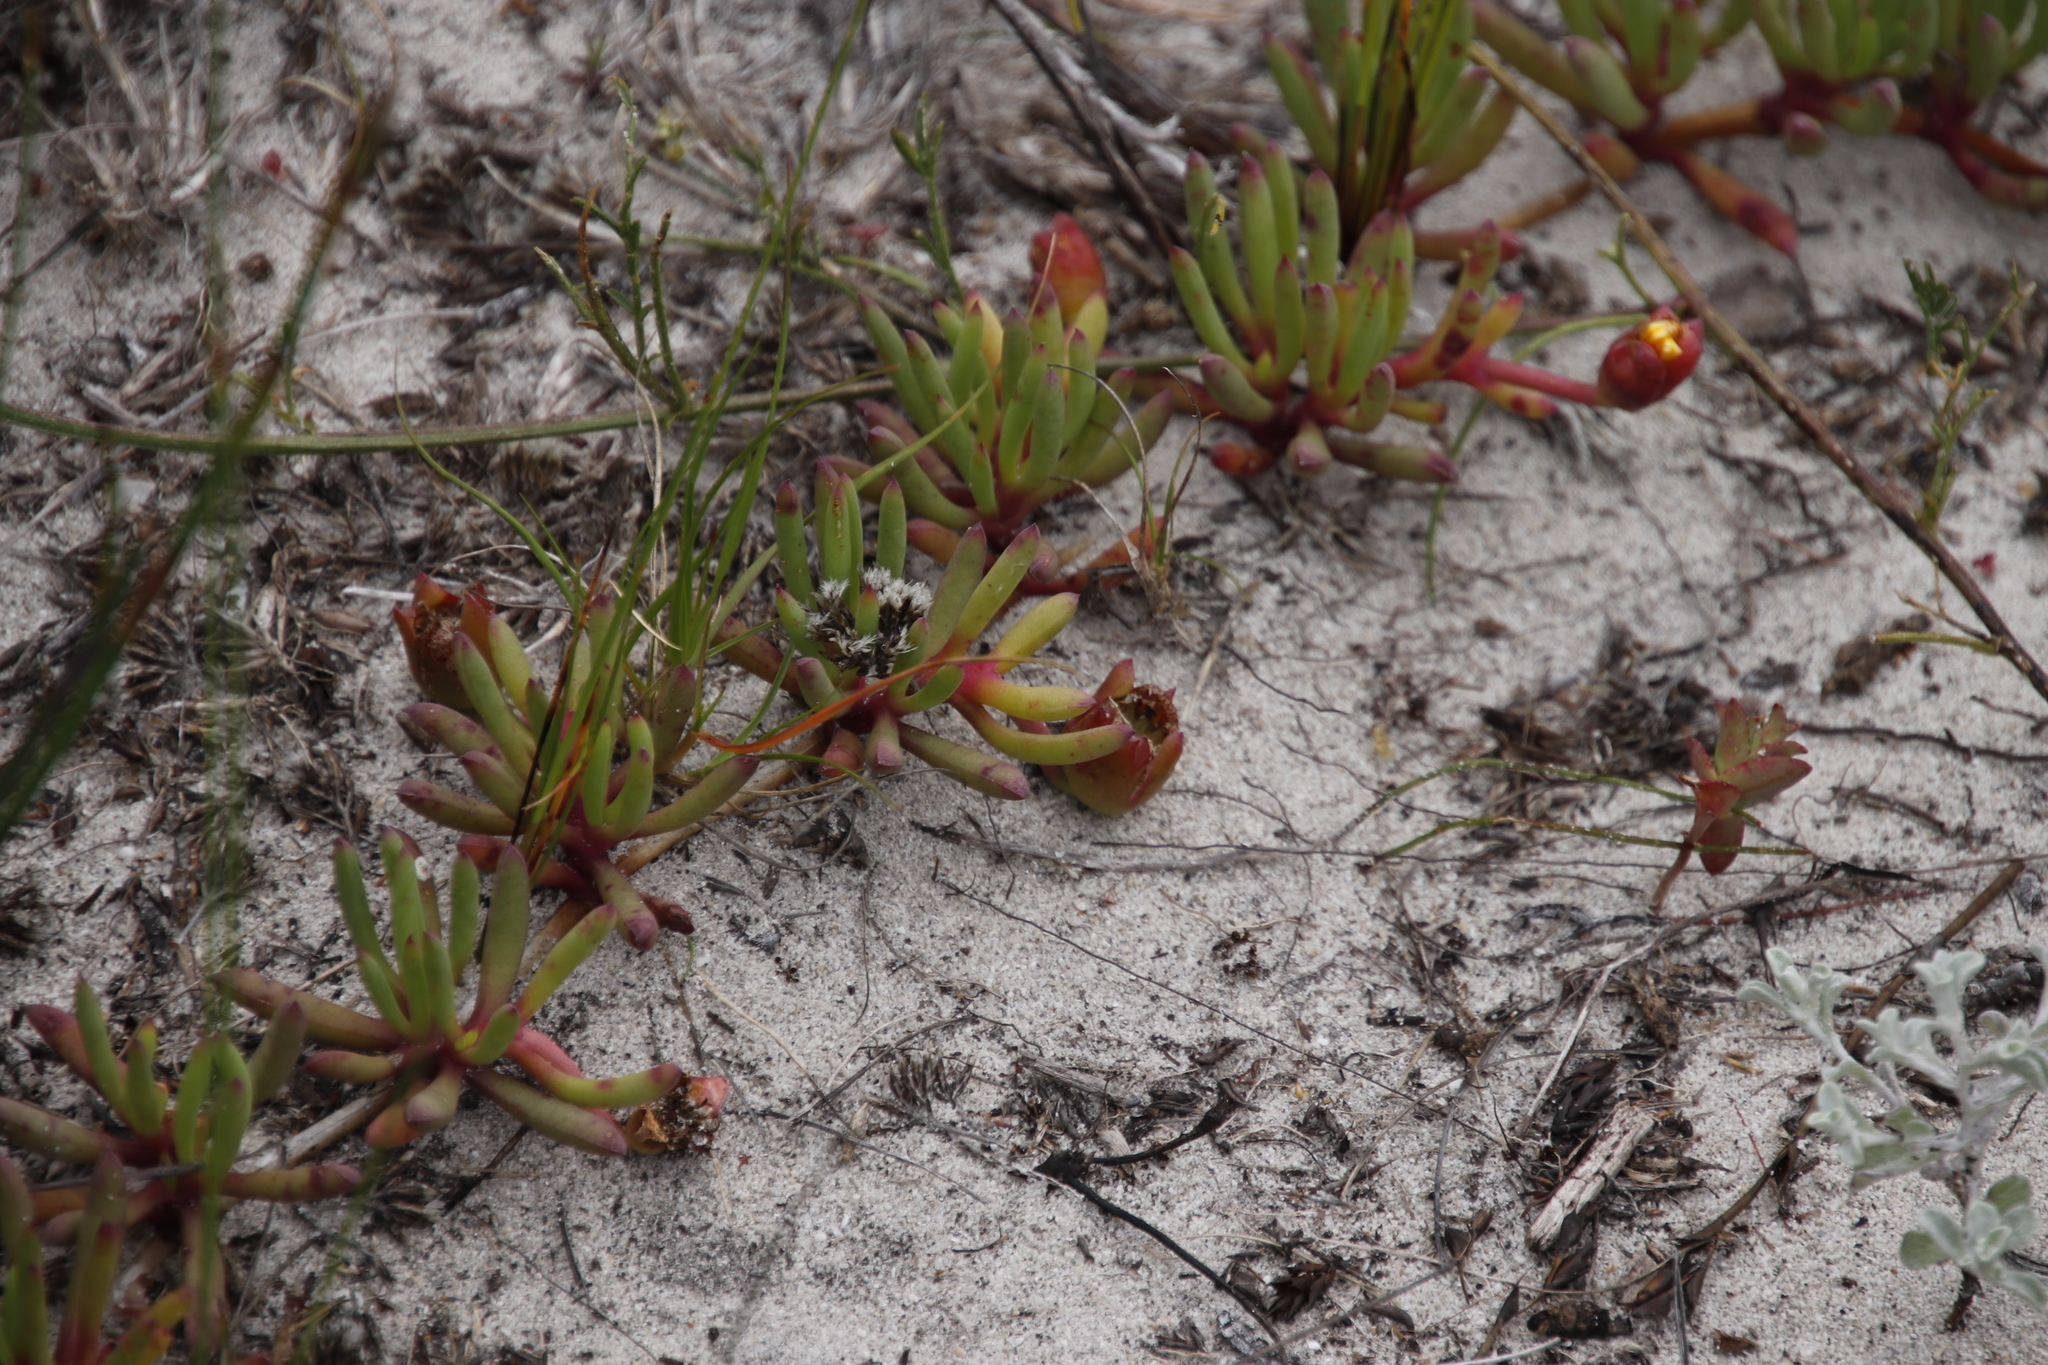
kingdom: Plantae
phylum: Tracheophyta
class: Magnoliopsida
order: Caryophyllales
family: Aizoaceae
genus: Jordaaniella
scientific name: Jordaaniella dubia
